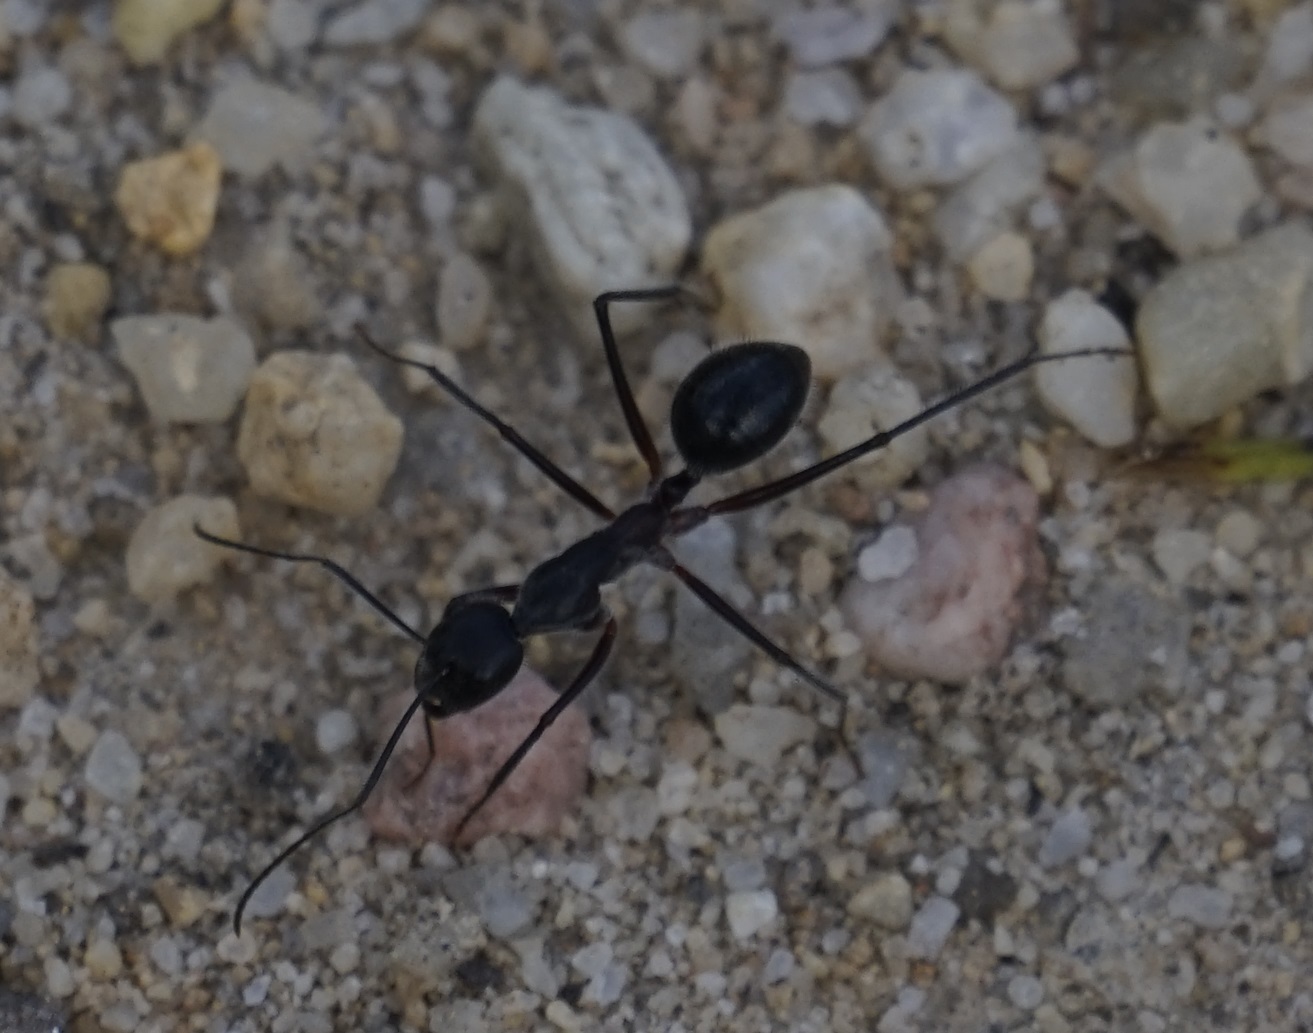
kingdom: Animalia
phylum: Arthropoda
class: Insecta
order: Hymenoptera
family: Formicidae
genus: Camponotus
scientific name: Camponotus intrepidus
